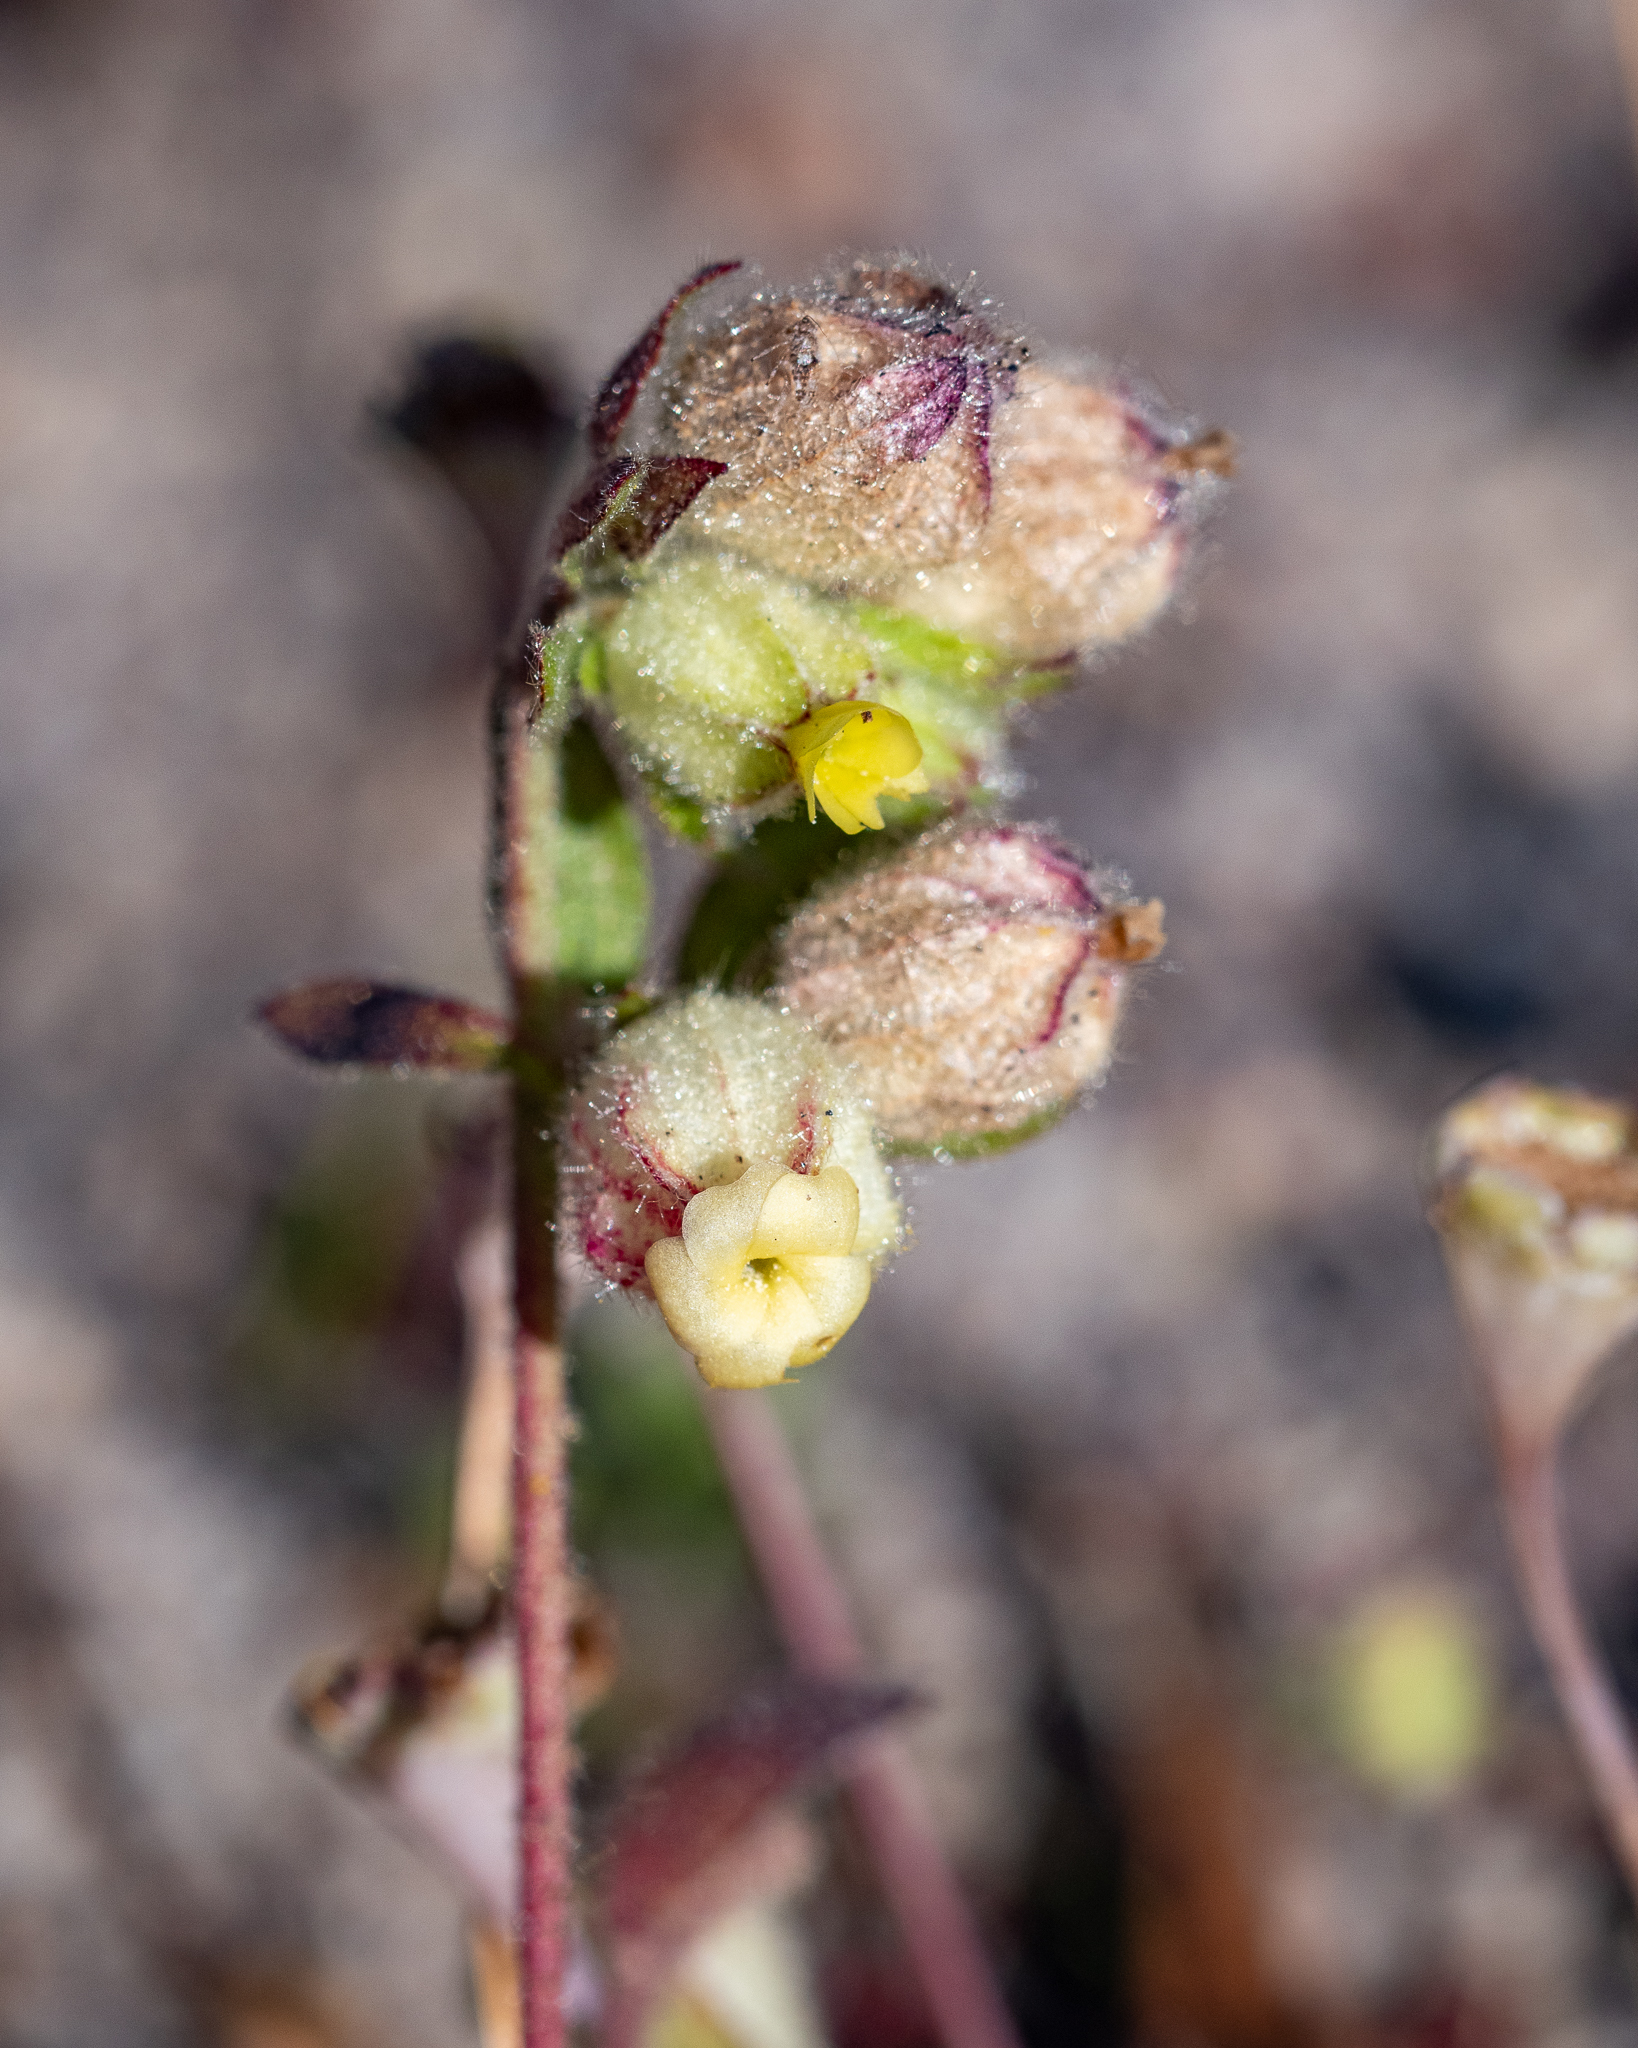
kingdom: Plantae
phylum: Tracheophyta
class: Magnoliopsida
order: Malvales
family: Malvaceae
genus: Hermannia
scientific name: Hermannia hyssopifolia
